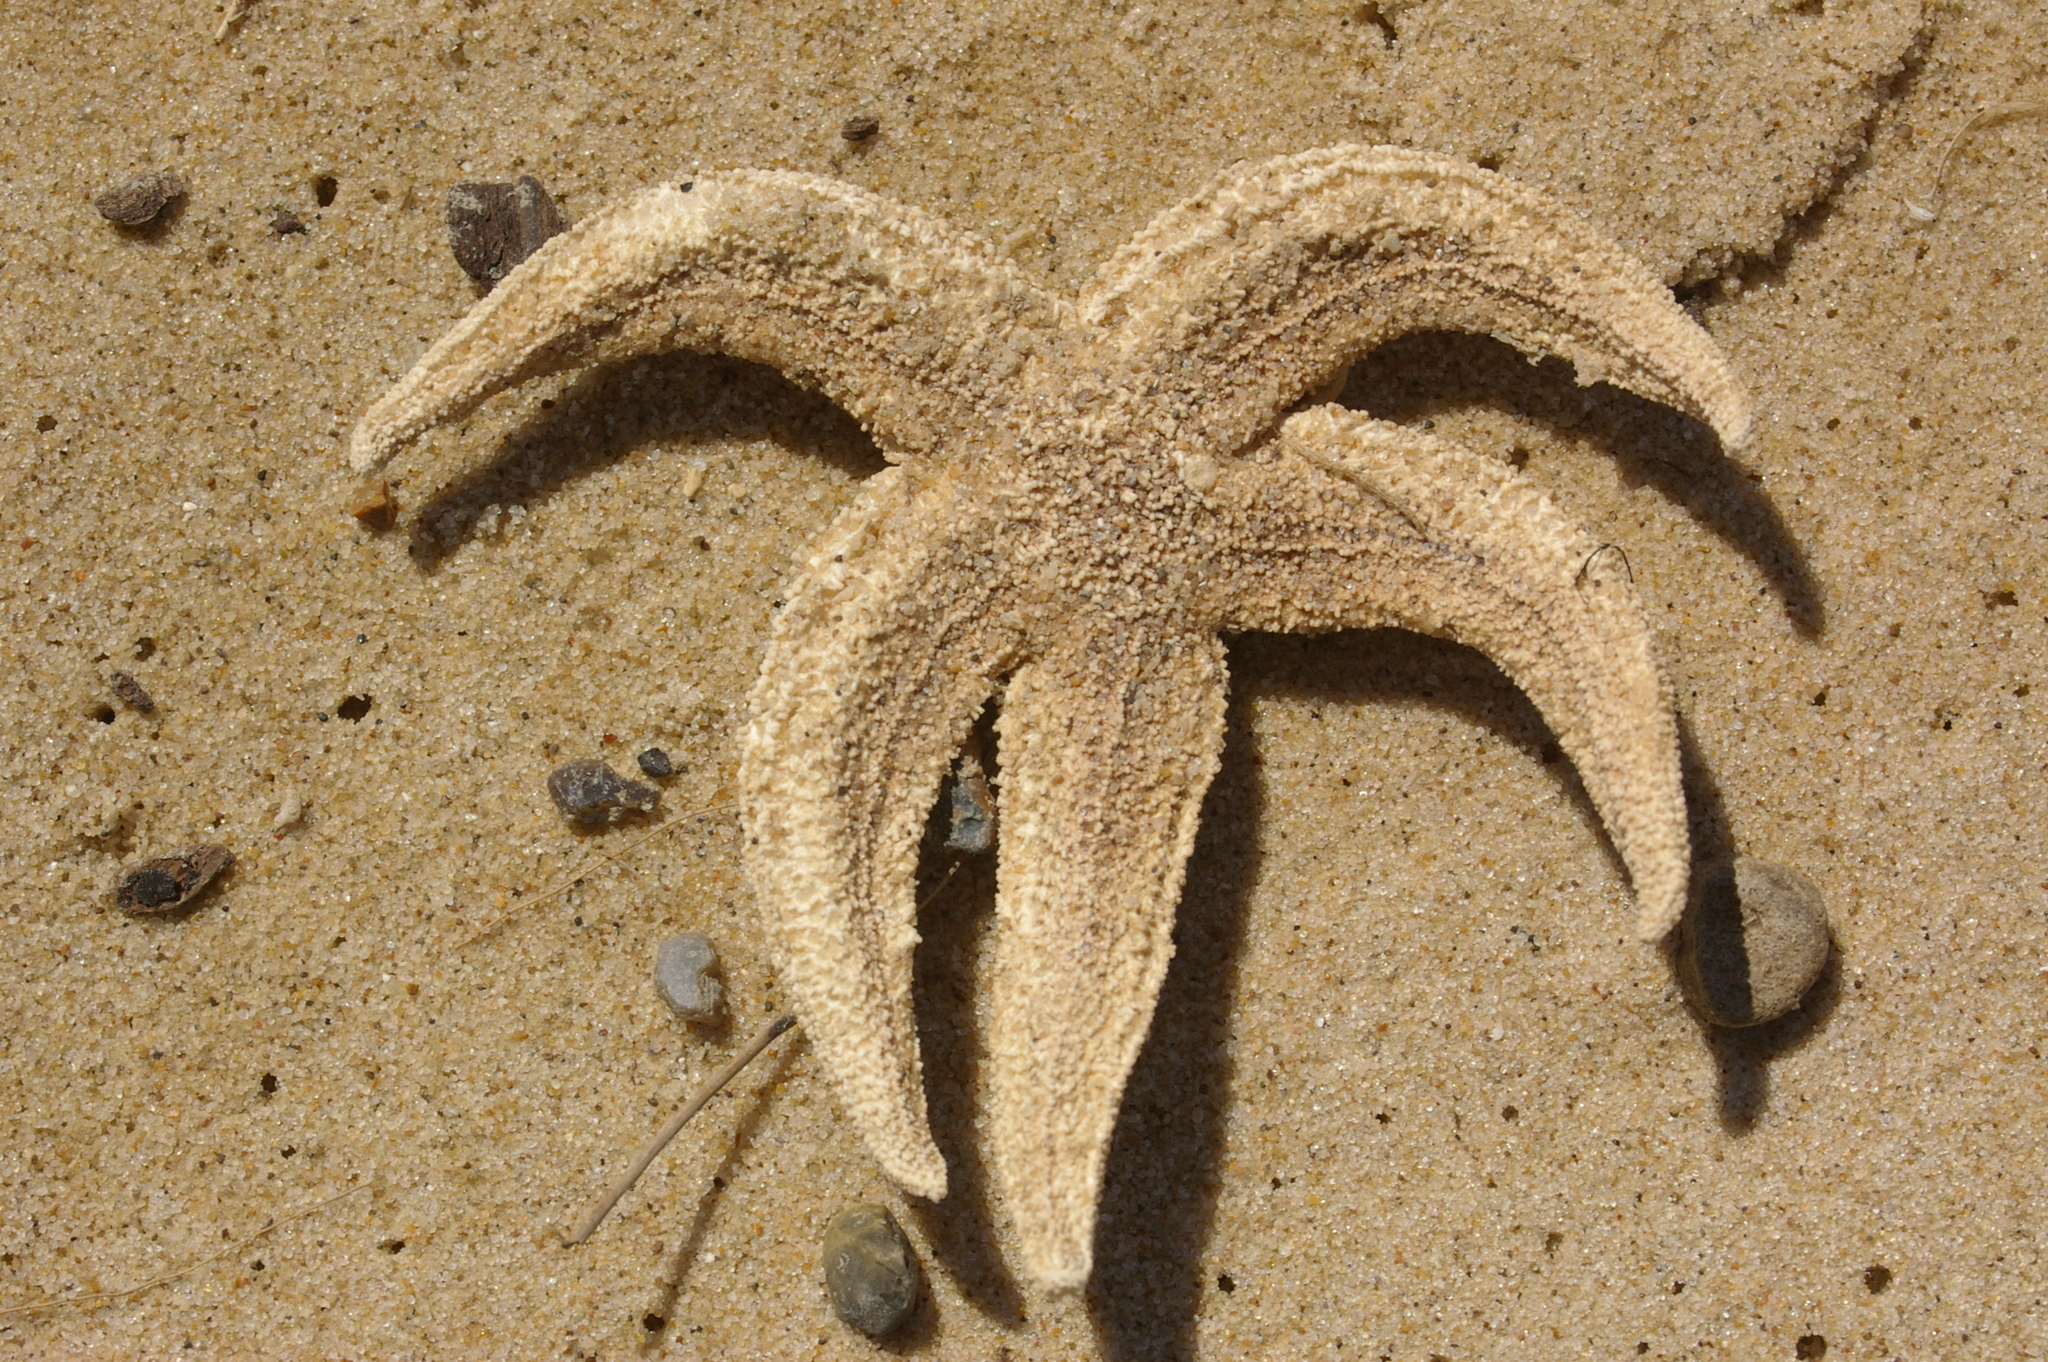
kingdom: Animalia
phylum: Echinodermata
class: Asteroidea
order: Forcipulatida
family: Asteriidae
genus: Asterias
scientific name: Asterias rubens
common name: Common starfish
